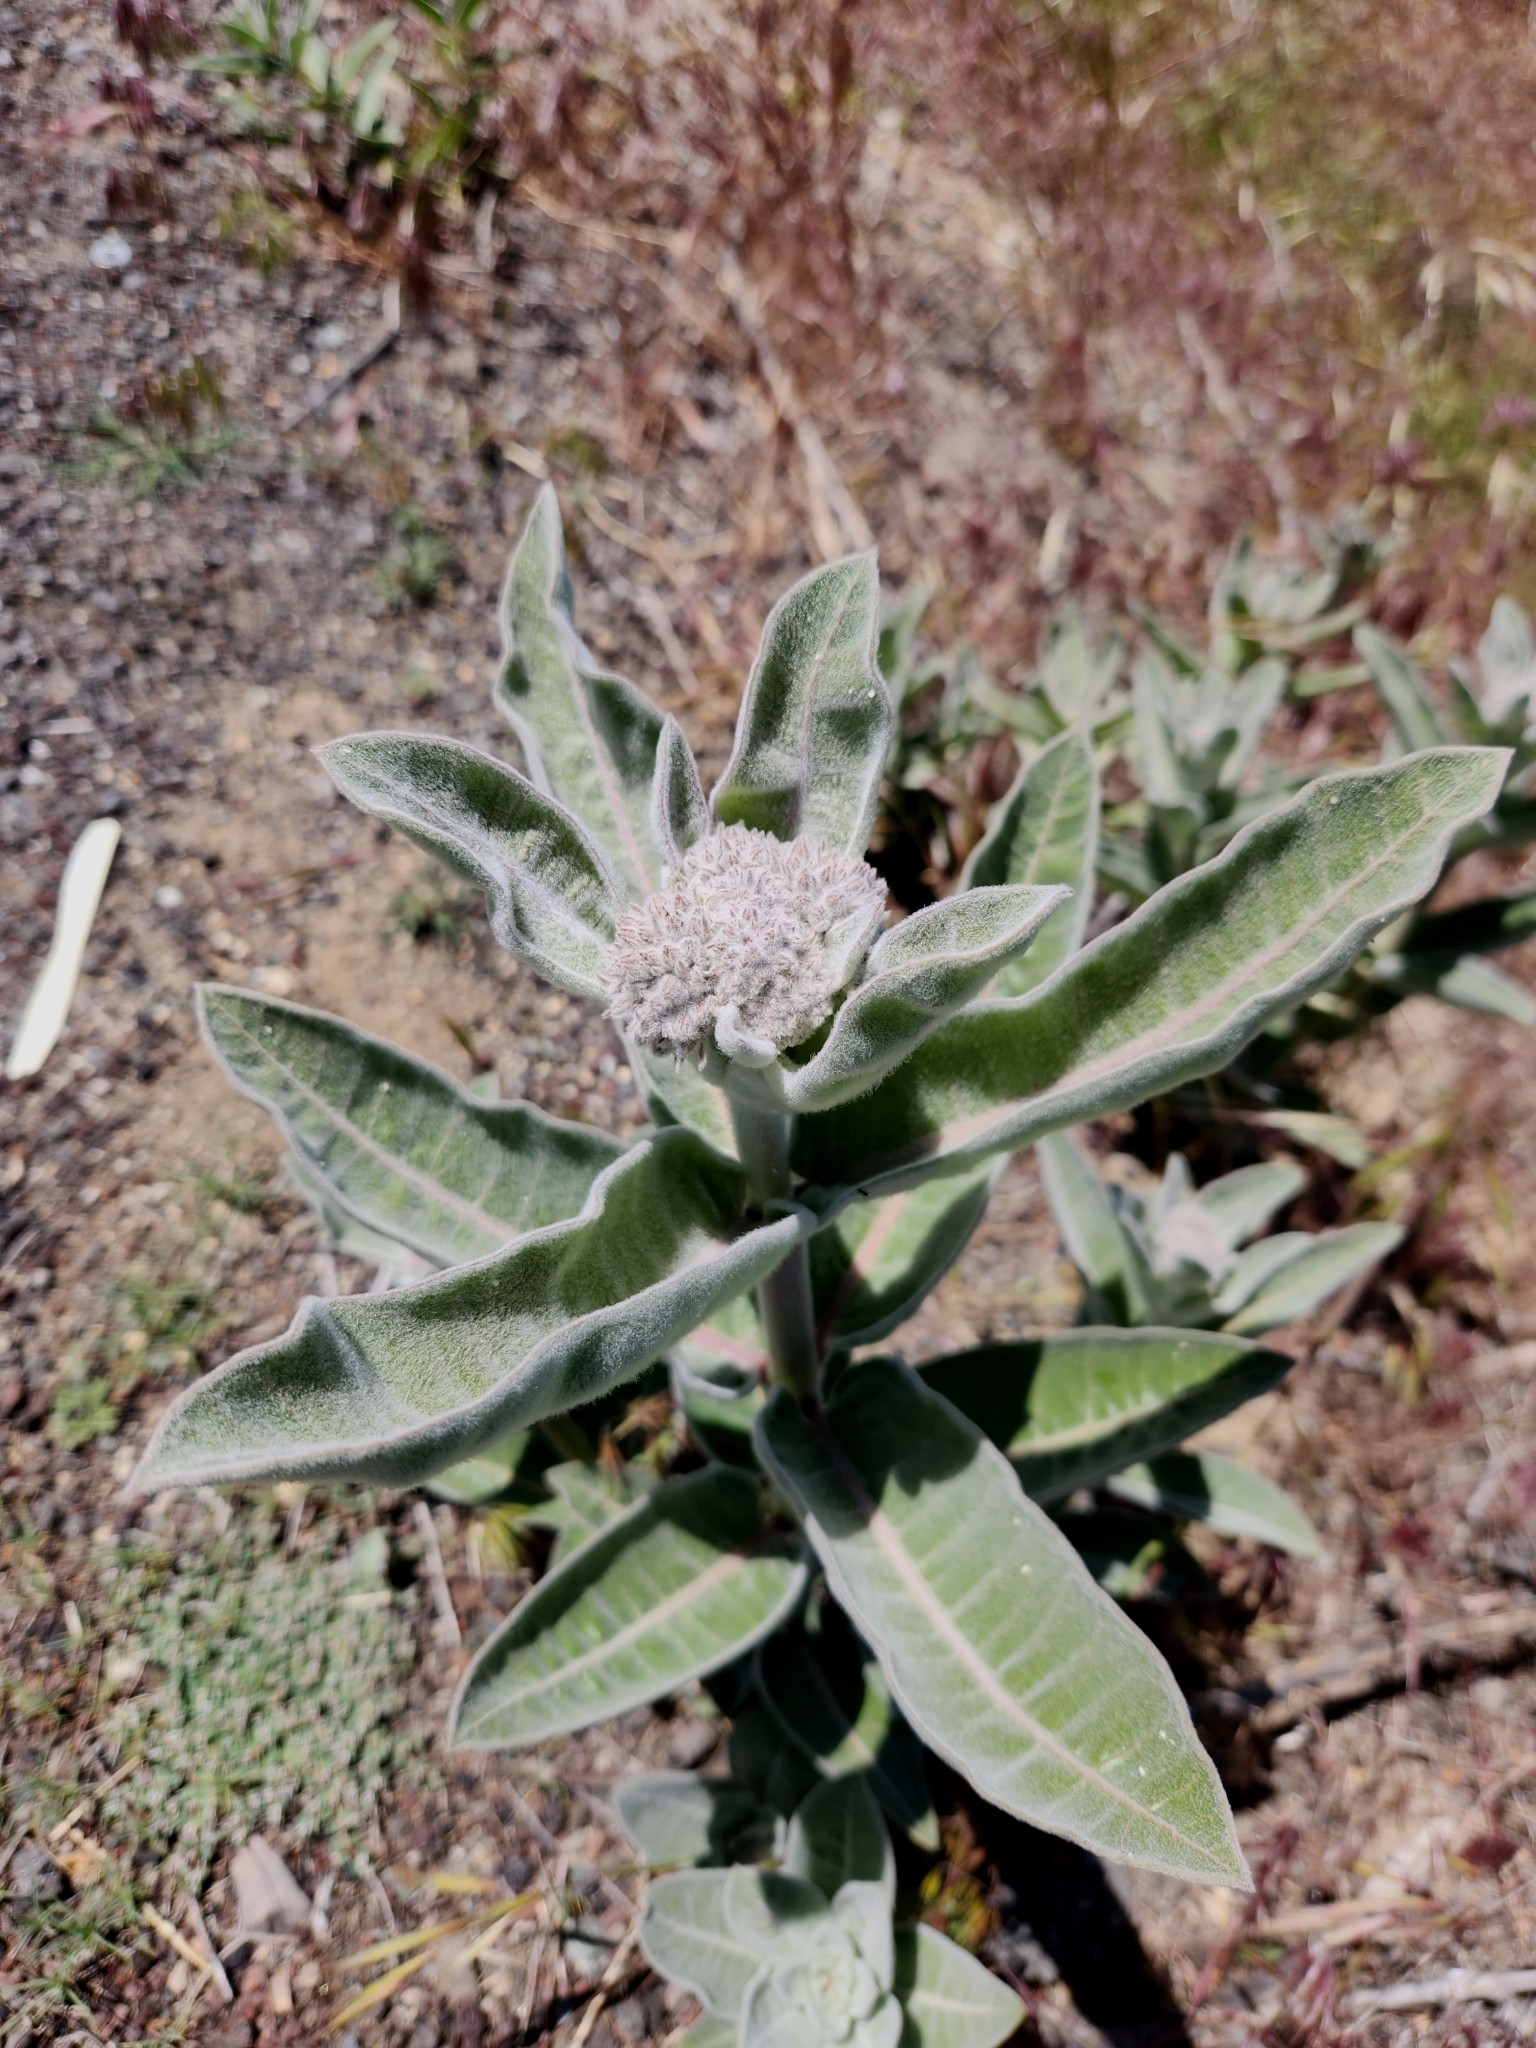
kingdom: Plantae
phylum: Tracheophyta
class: Magnoliopsida
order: Gentianales
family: Apocynaceae
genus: Asclepias
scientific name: Asclepias eriocarpa
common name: Indian milkweed
